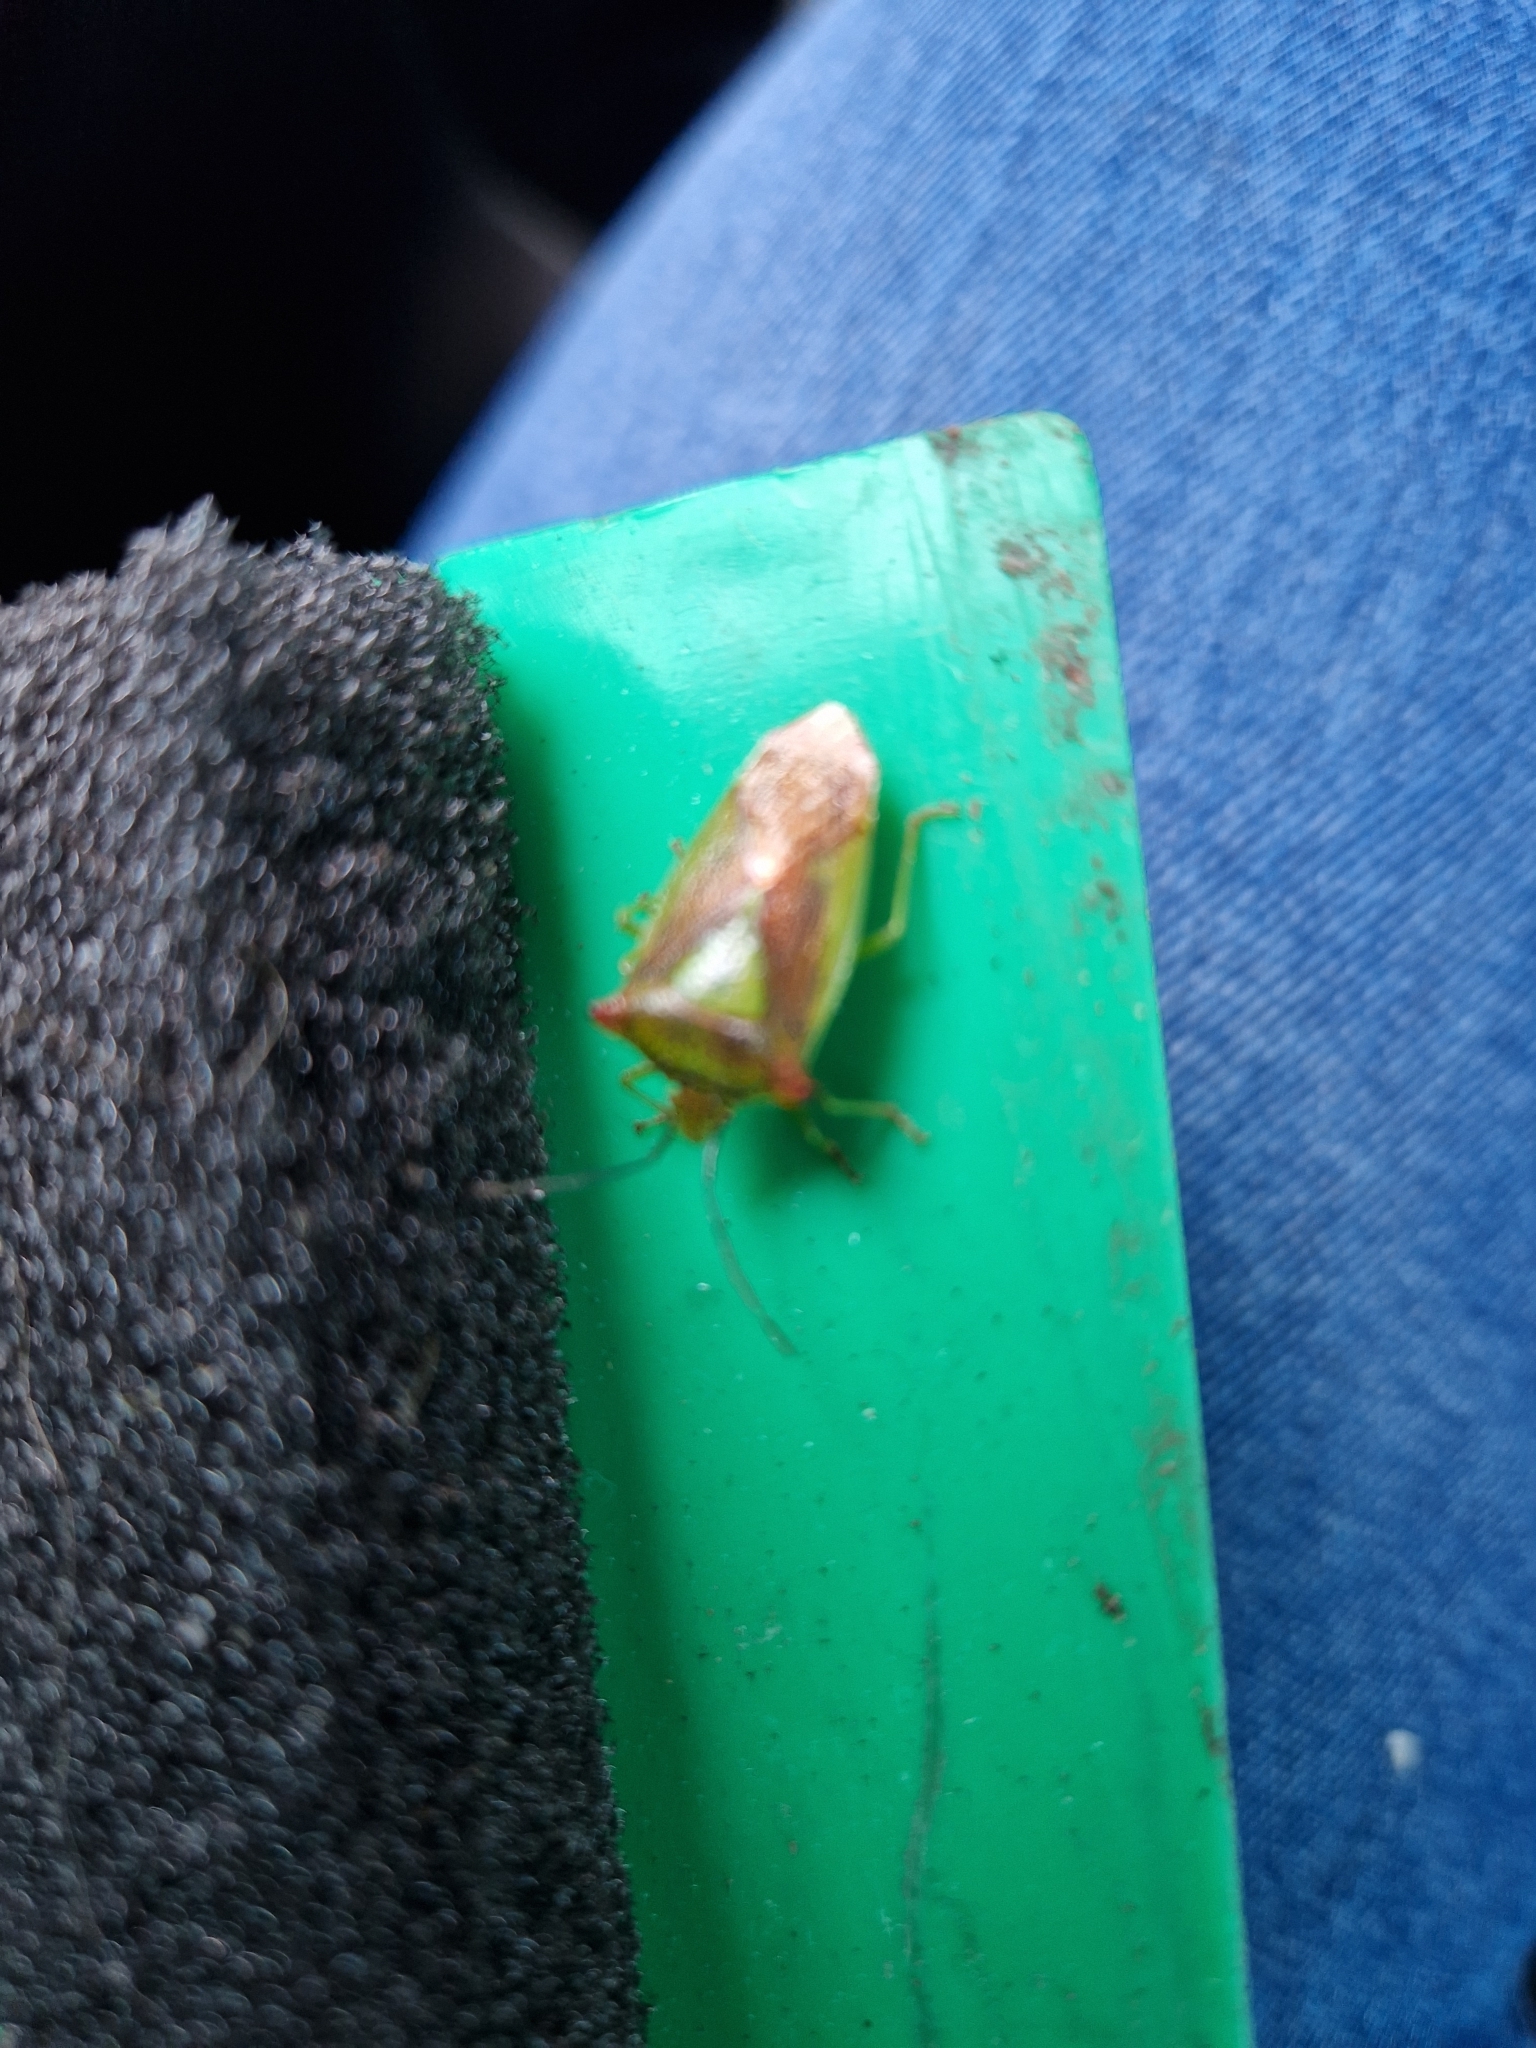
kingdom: Animalia
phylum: Arthropoda
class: Insecta
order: Hemiptera
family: Acanthosomatidae
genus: Acanthosoma
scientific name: Acanthosoma haemorrhoidale
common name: Hawthorn shieldbug
